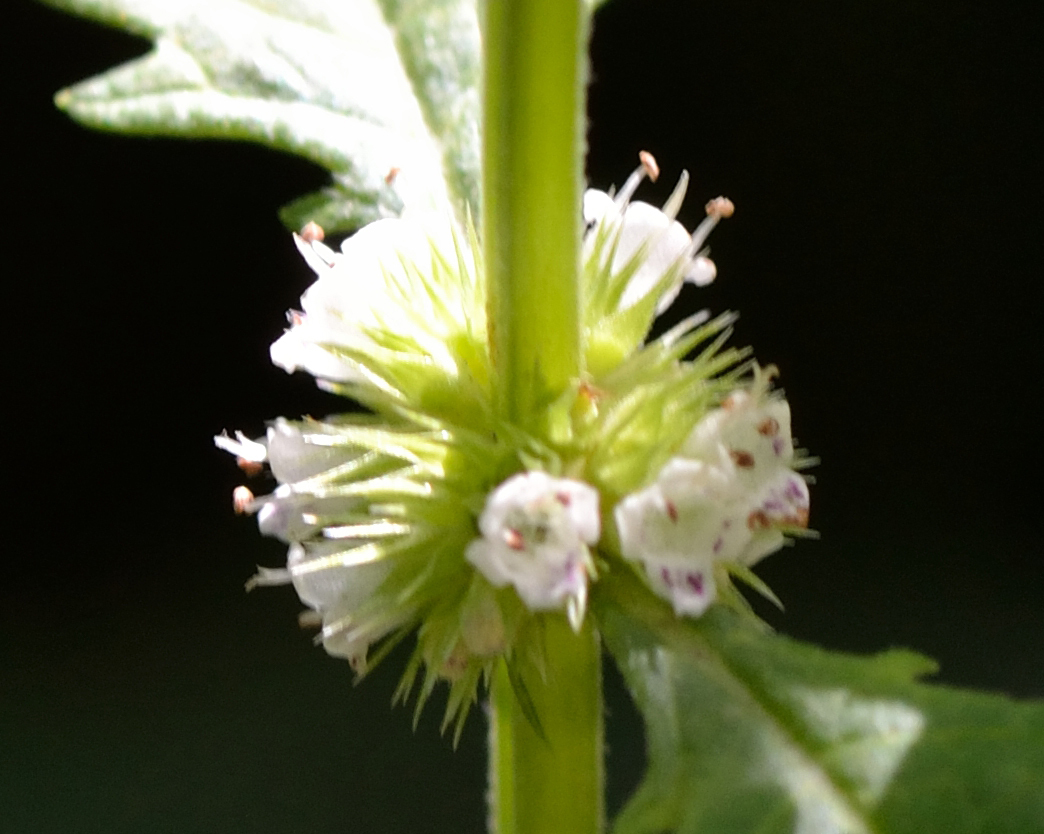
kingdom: Plantae
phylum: Tracheophyta
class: Magnoliopsida
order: Lamiales
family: Lamiaceae
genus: Lycopus
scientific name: Lycopus europaeus
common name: European bugleweed
